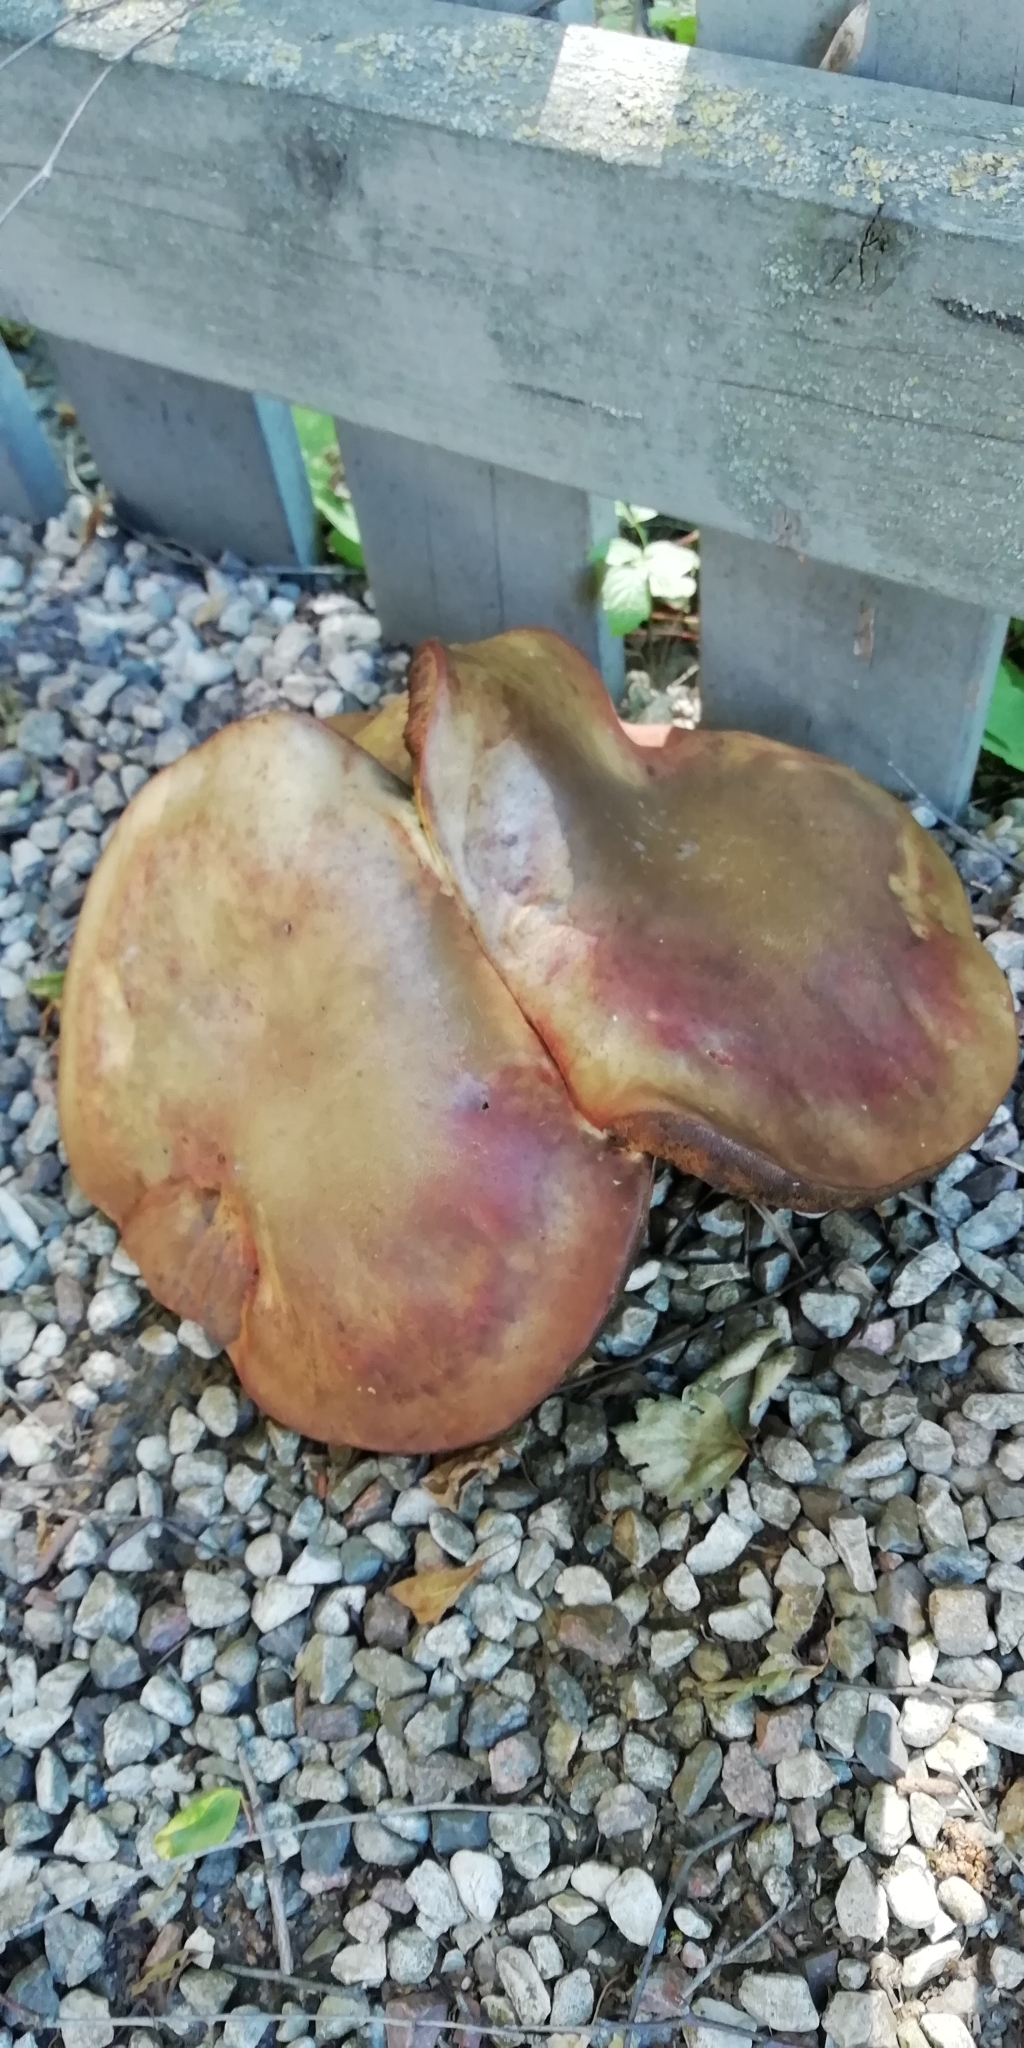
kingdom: Fungi
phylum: Basidiomycota
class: Agaricomycetes
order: Boletales
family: Boletaceae
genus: Suillellus
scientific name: Suillellus luridus
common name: Lurid bolete
